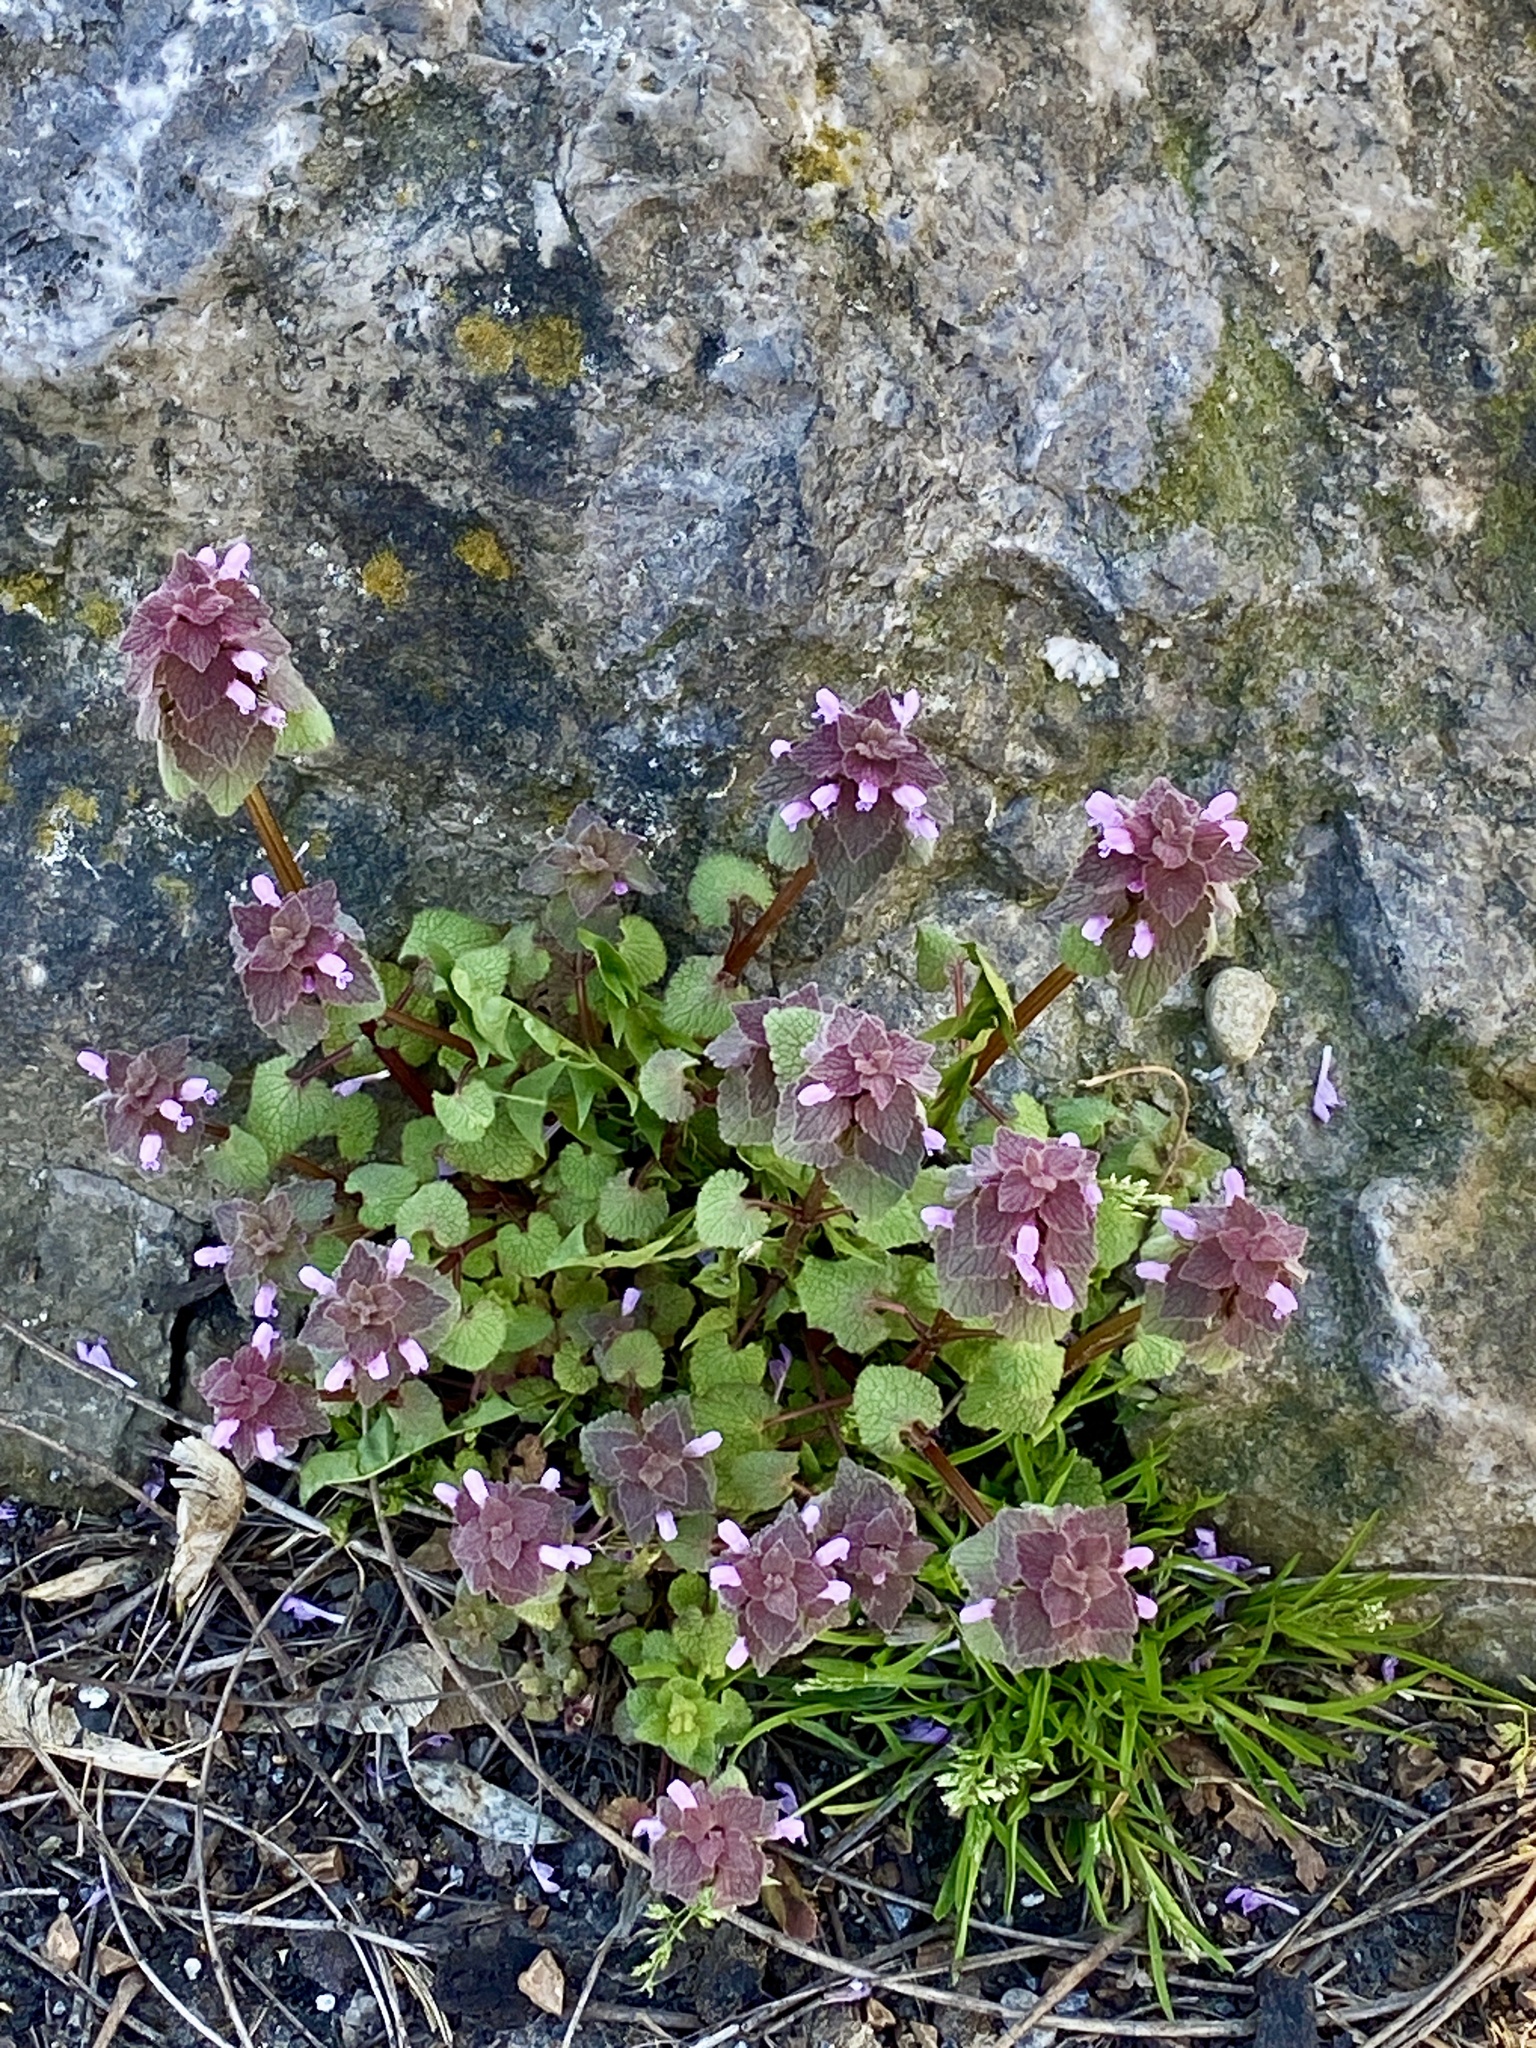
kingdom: Plantae
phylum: Tracheophyta
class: Magnoliopsida
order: Lamiales
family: Lamiaceae
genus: Lamium
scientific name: Lamium purpureum
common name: Red dead-nettle
